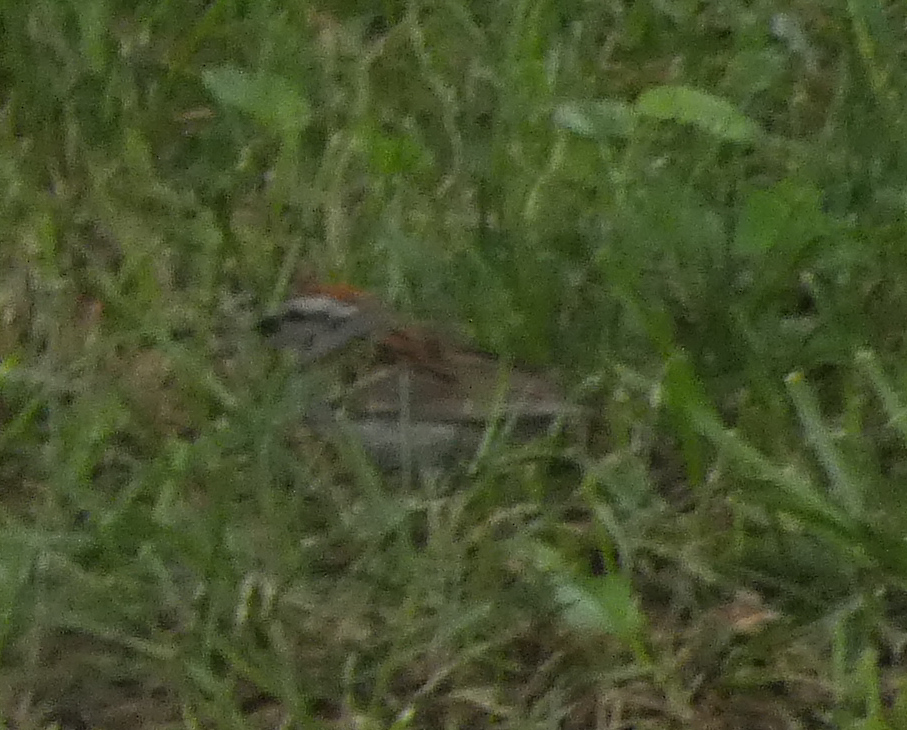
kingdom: Animalia
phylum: Chordata
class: Aves
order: Passeriformes
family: Passerellidae
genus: Spizella
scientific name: Spizella passerina
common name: Chipping sparrow
